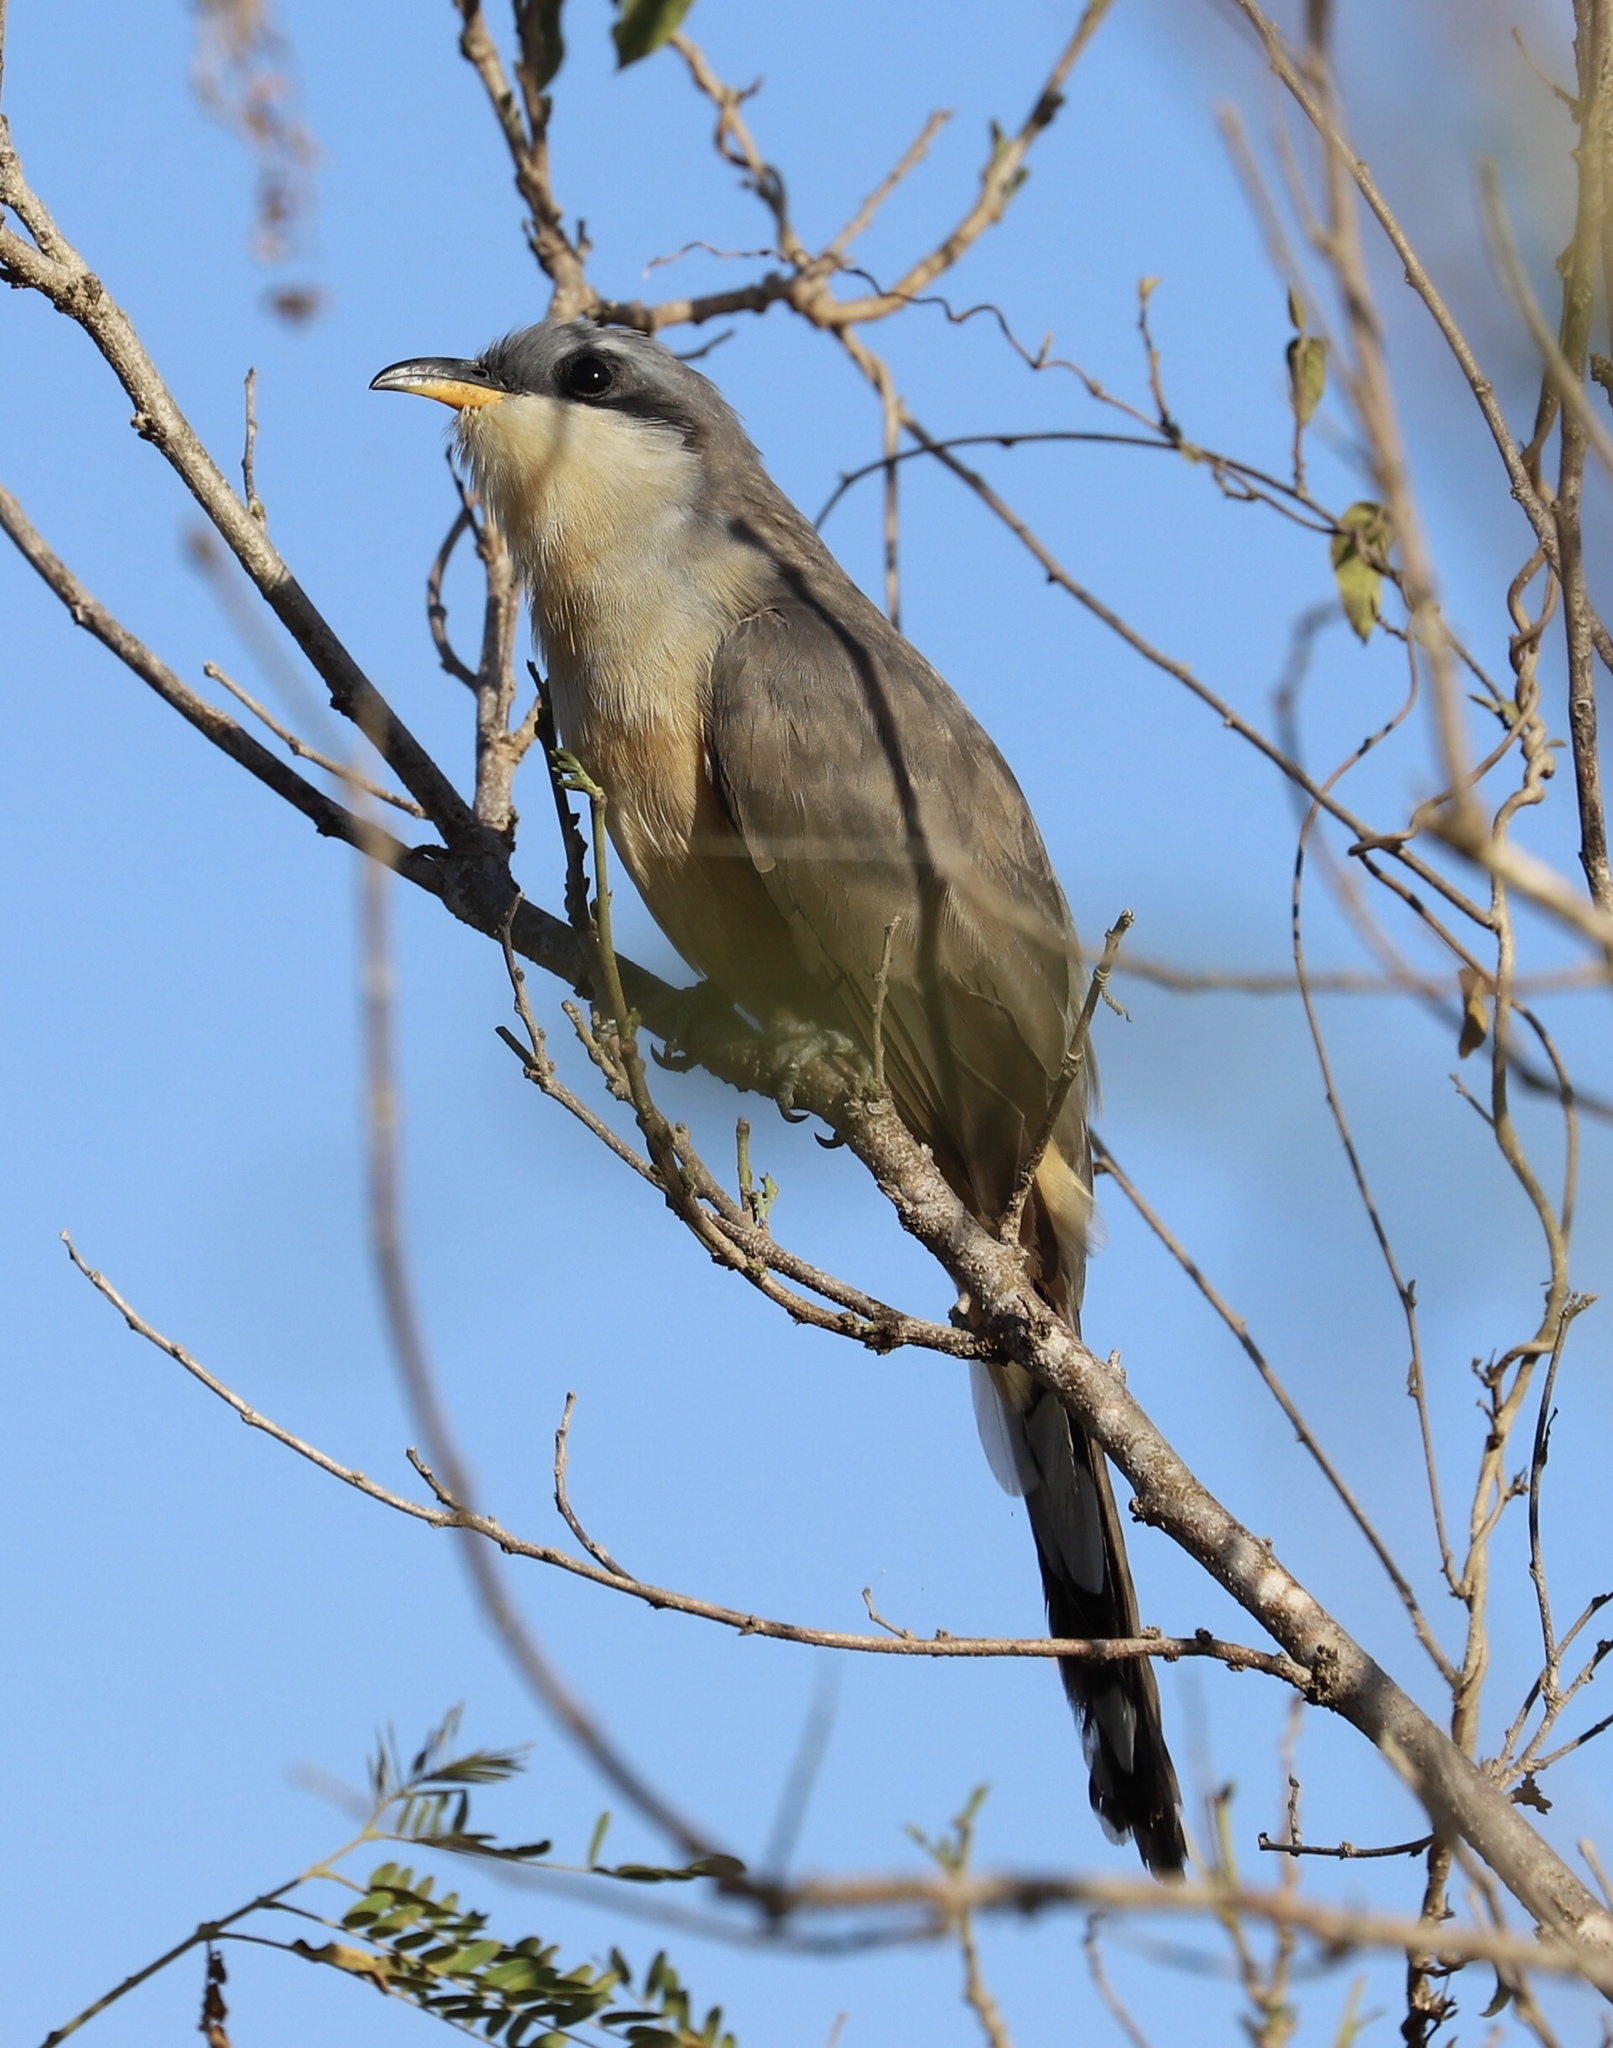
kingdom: Animalia
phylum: Chordata
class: Aves
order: Cuculiformes
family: Cuculidae
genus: Coccyzus
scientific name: Coccyzus minor
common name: Mangrove cuckoo
